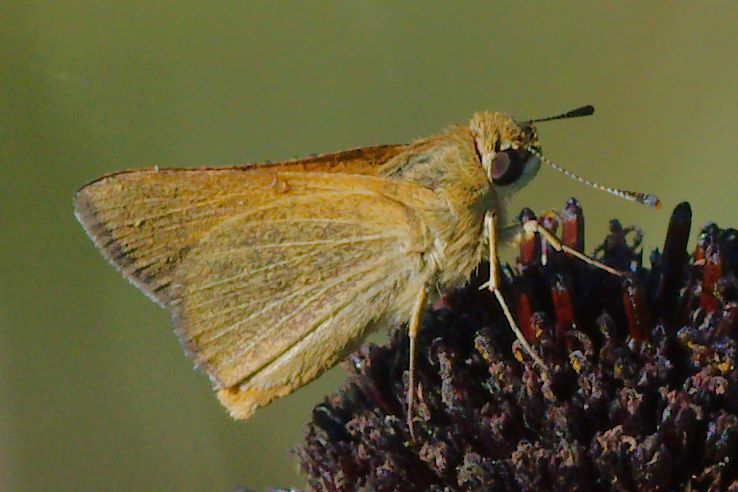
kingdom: Animalia
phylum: Arthropoda
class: Insecta
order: Lepidoptera
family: Hesperiidae
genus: Atrytone
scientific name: Atrytone arogos
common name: Arogos skipper
